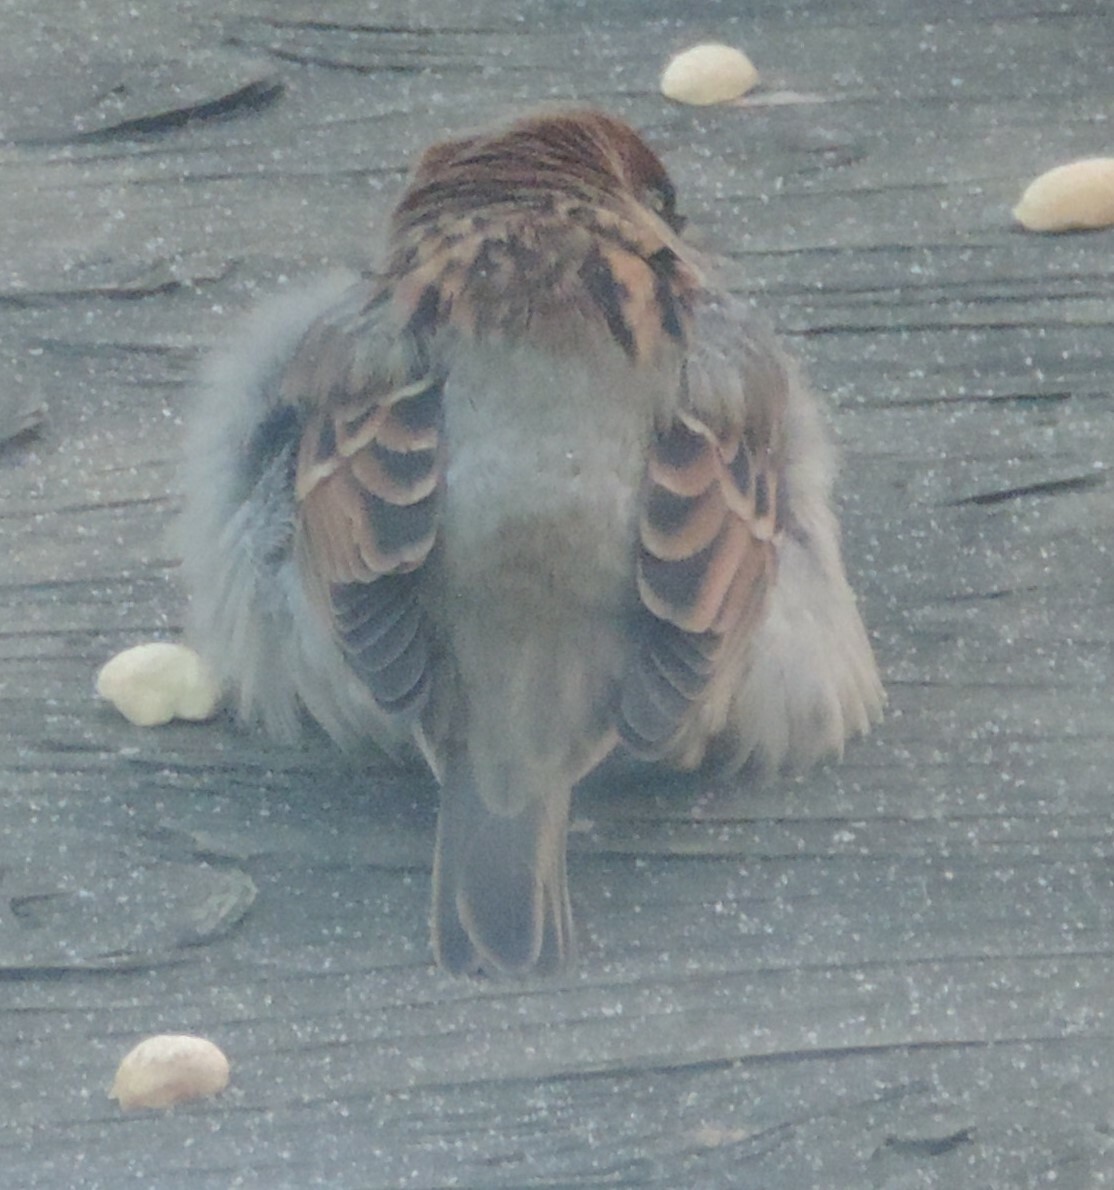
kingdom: Animalia
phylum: Chordata
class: Aves
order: Passeriformes
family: Passeridae
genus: Passer
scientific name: Passer domesticus
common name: House sparrow
